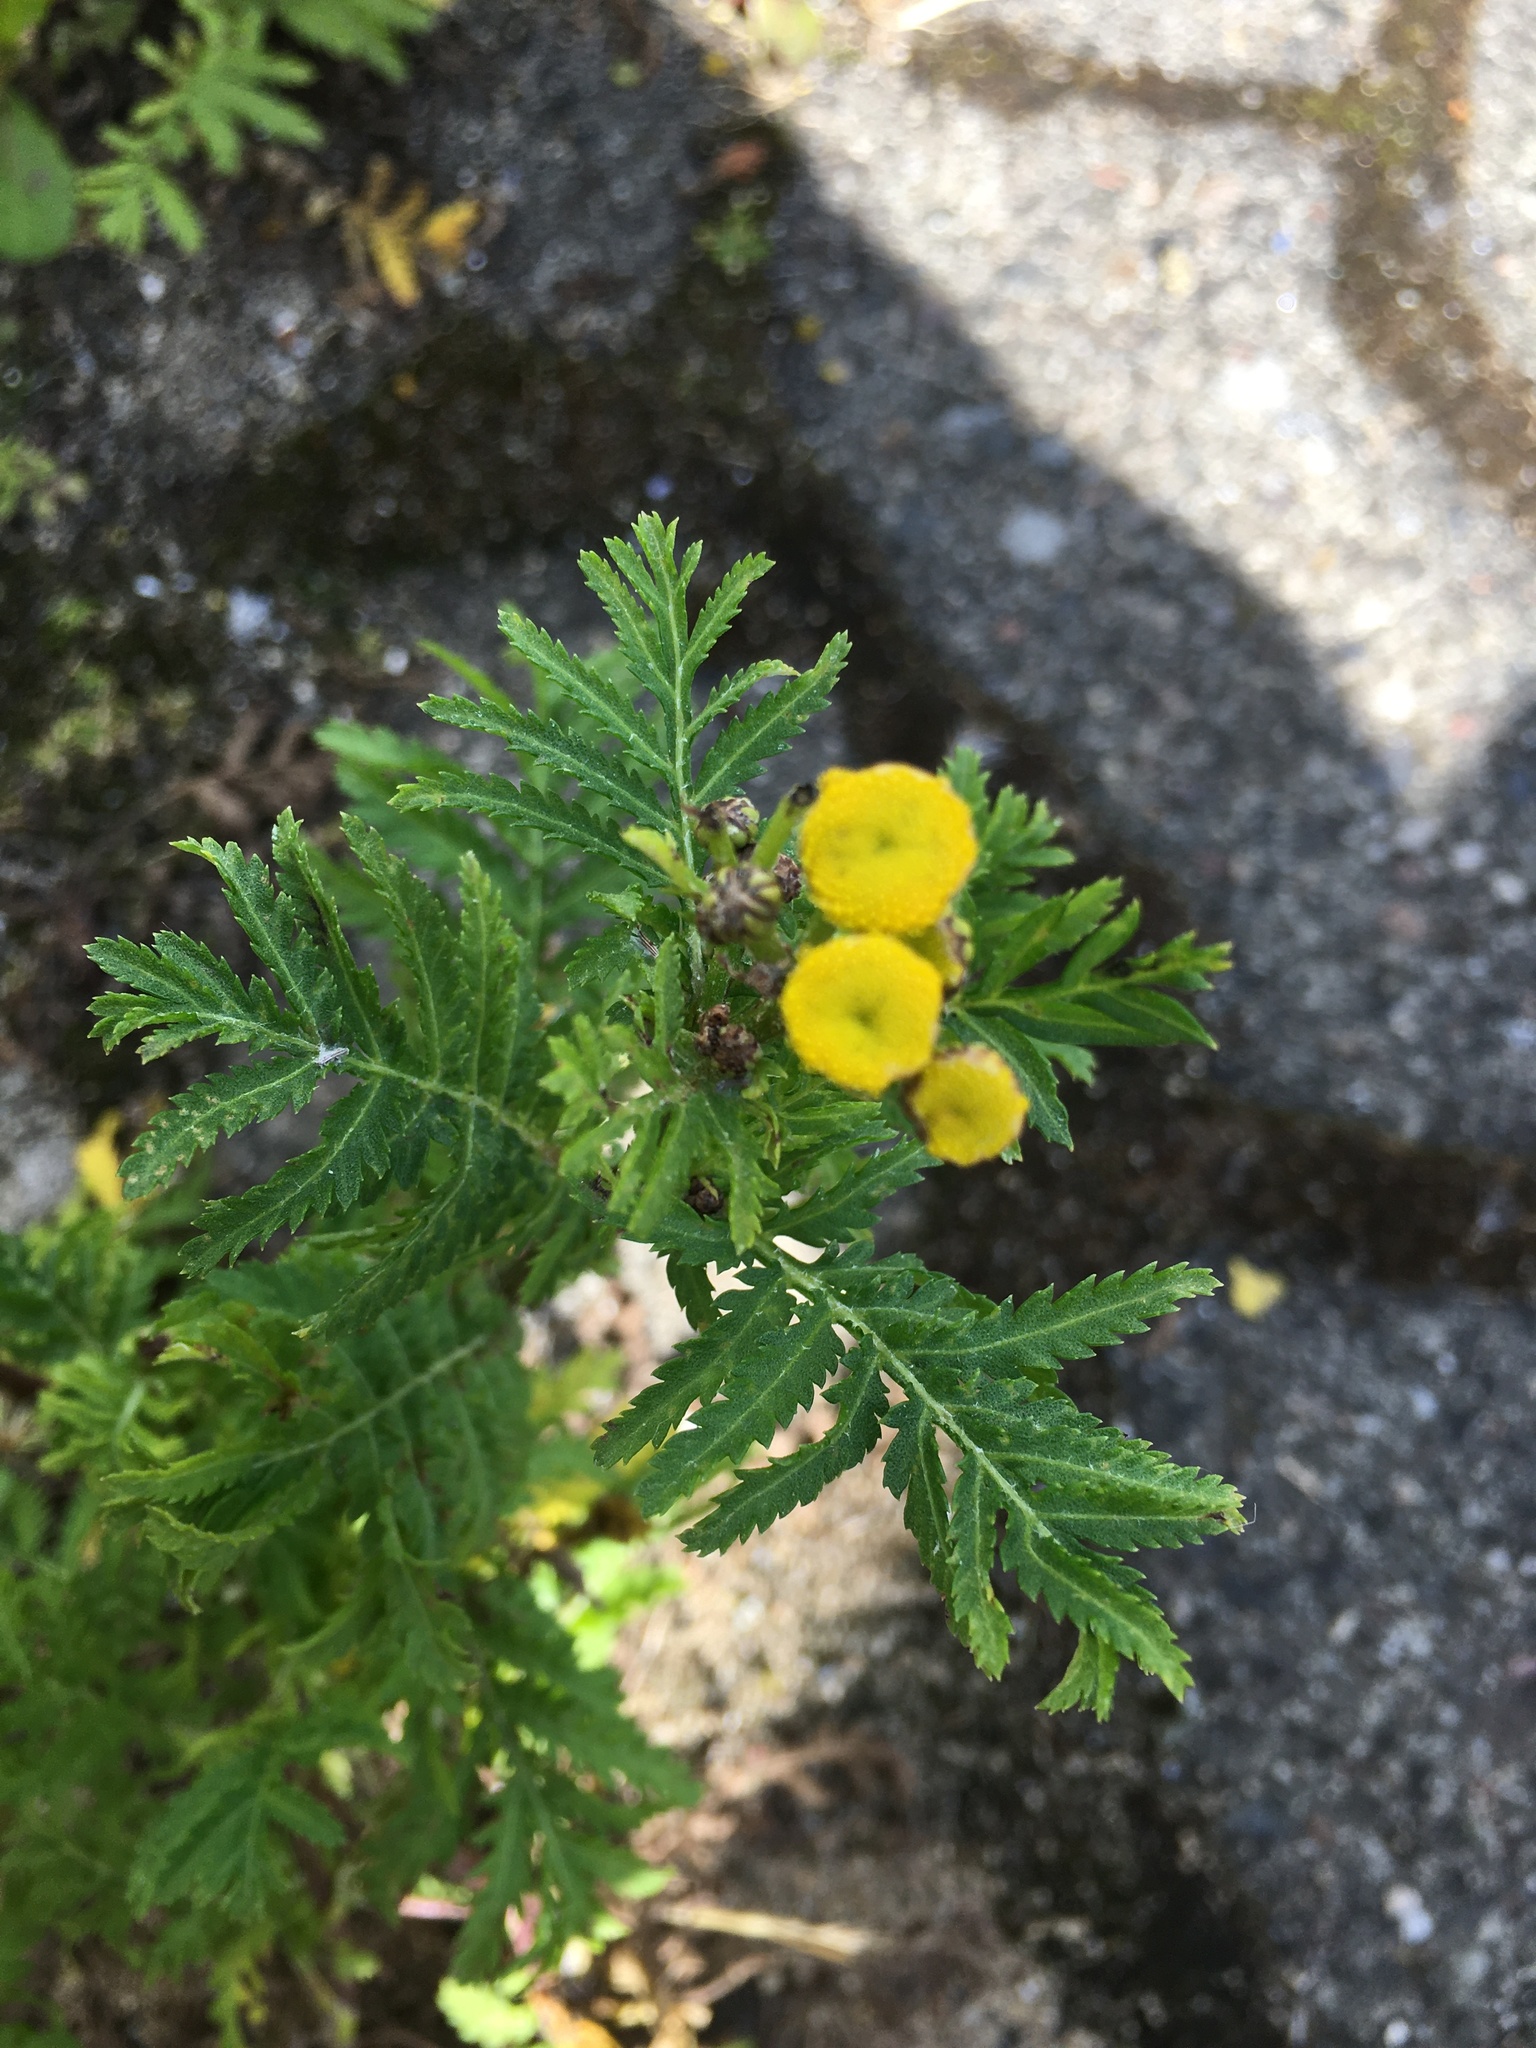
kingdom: Plantae
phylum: Tracheophyta
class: Magnoliopsida
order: Asterales
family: Asteraceae
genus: Tanacetum
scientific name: Tanacetum vulgare
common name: Common tansy
